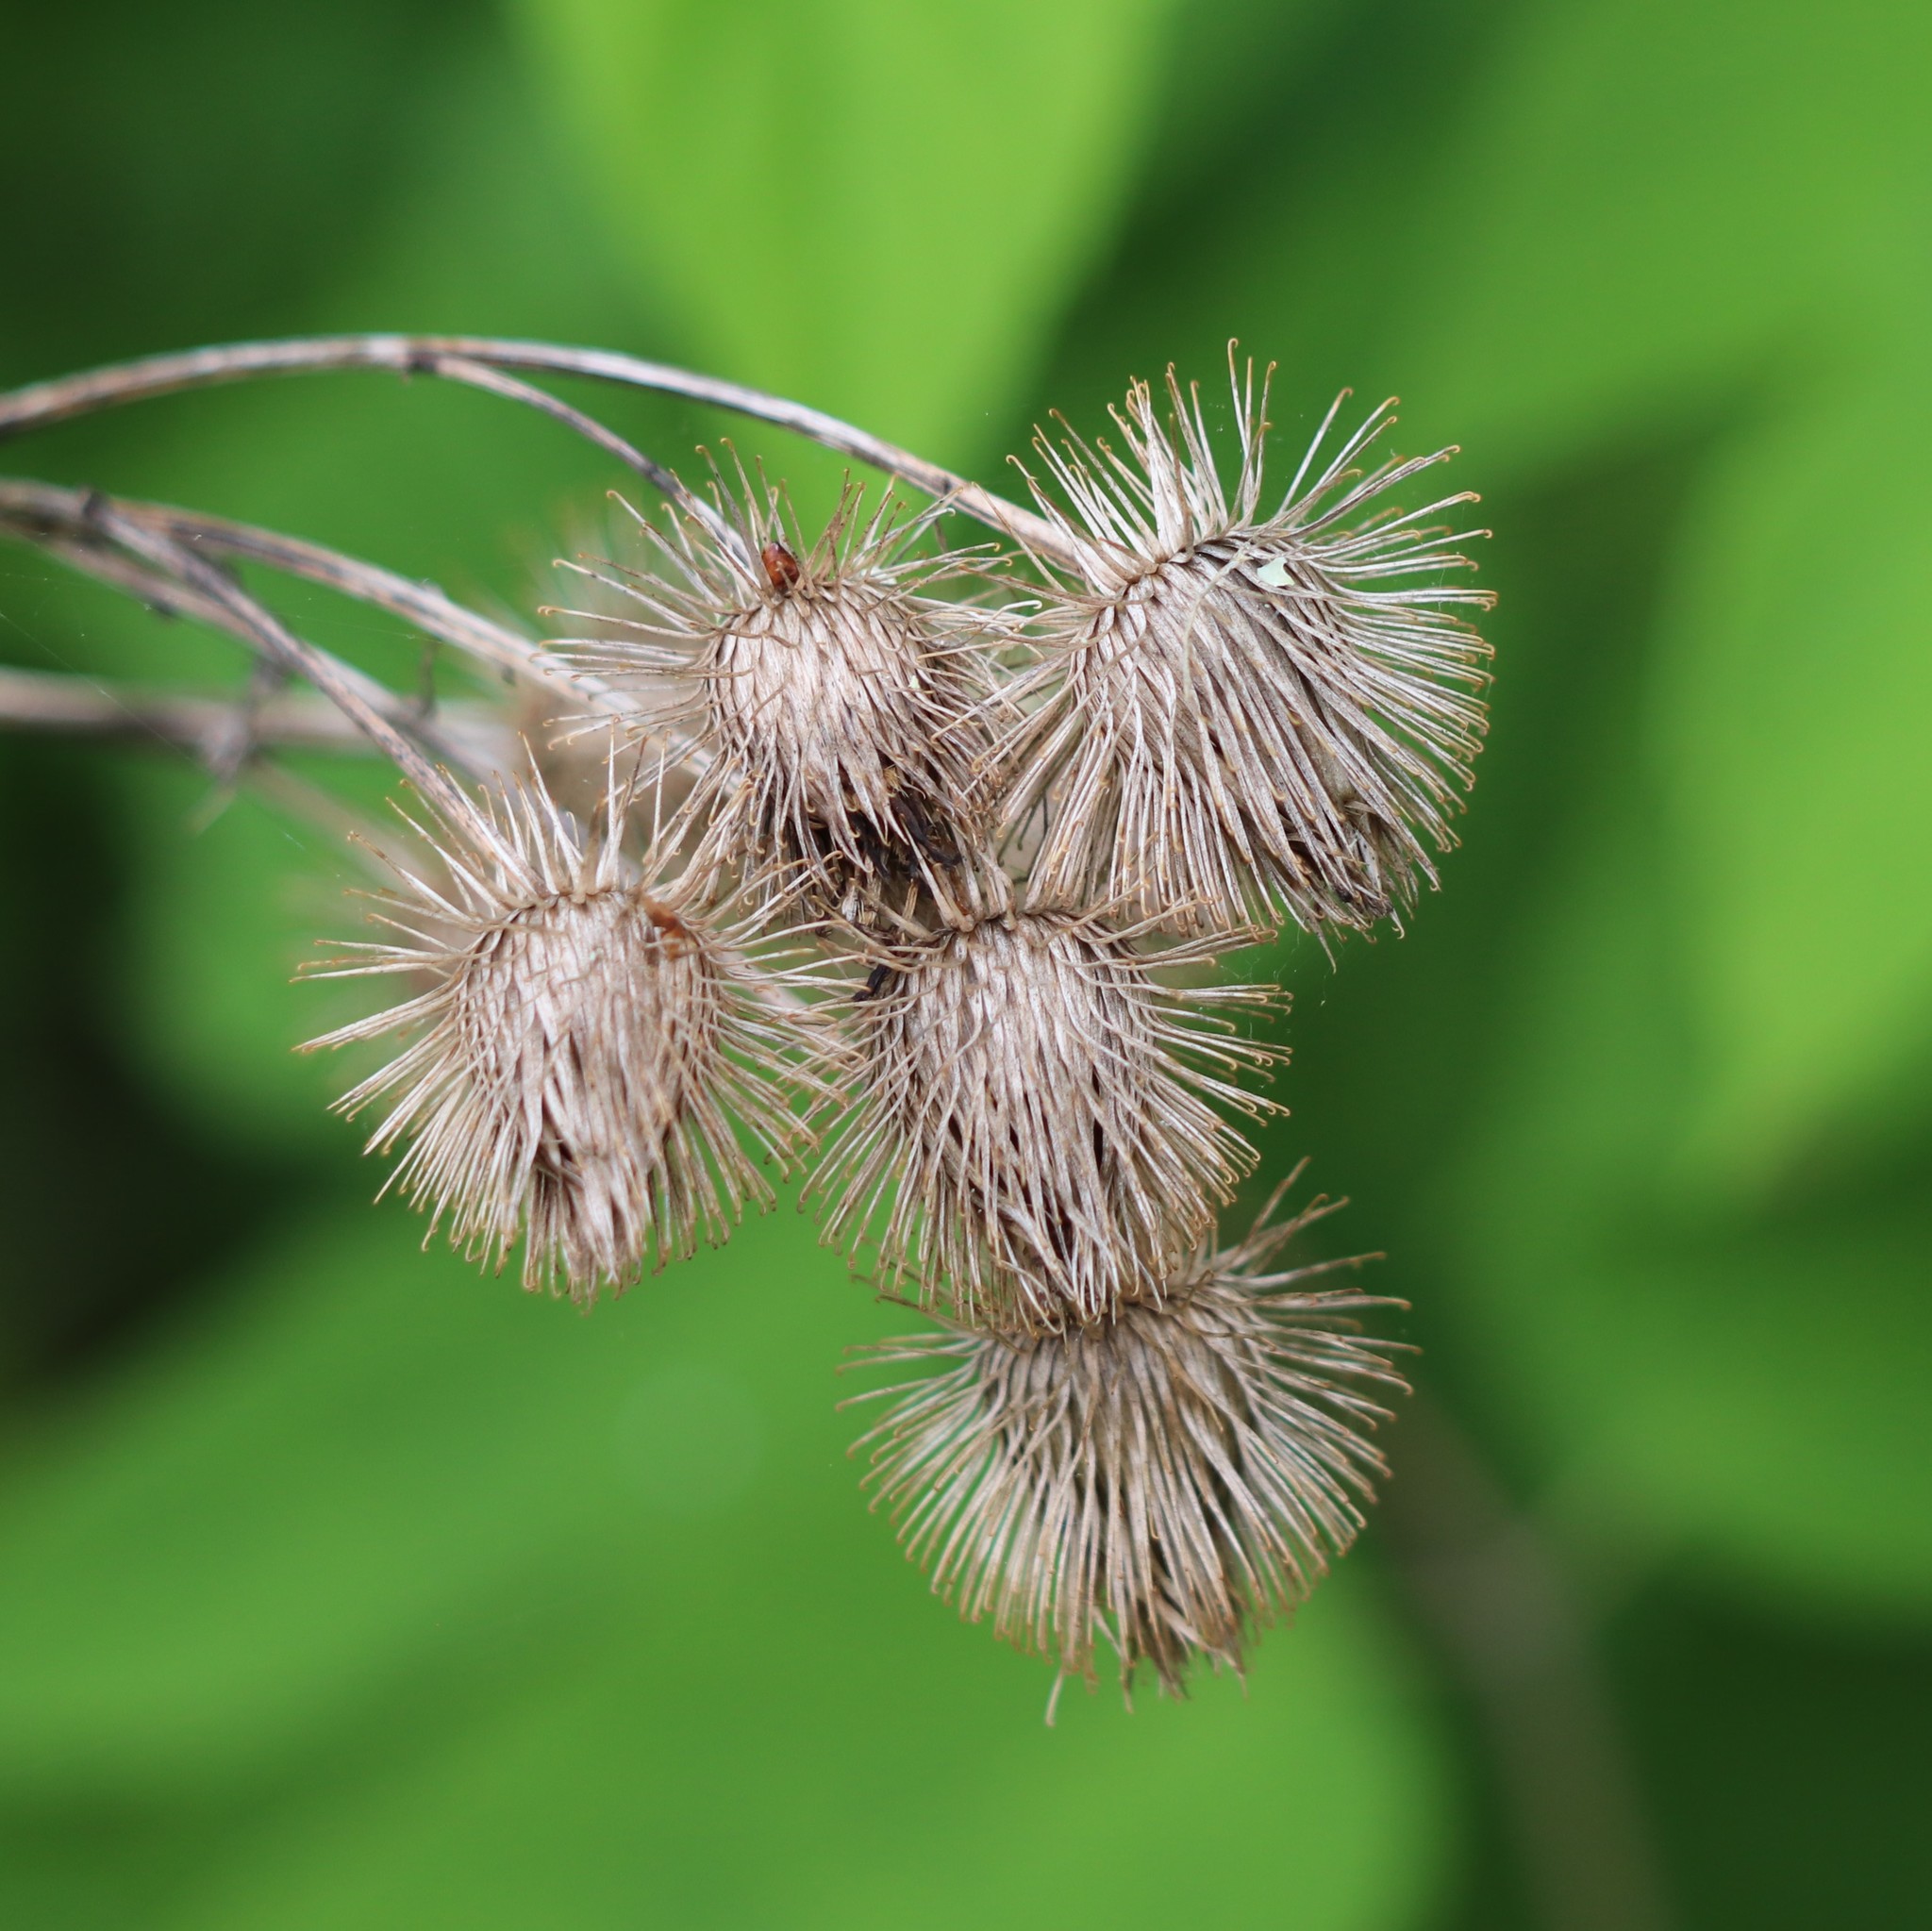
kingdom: Plantae
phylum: Tracheophyta
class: Magnoliopsida
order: Asterales
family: Asteraceae
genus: Arctium
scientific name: Arctium lappa
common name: Greater burdock
